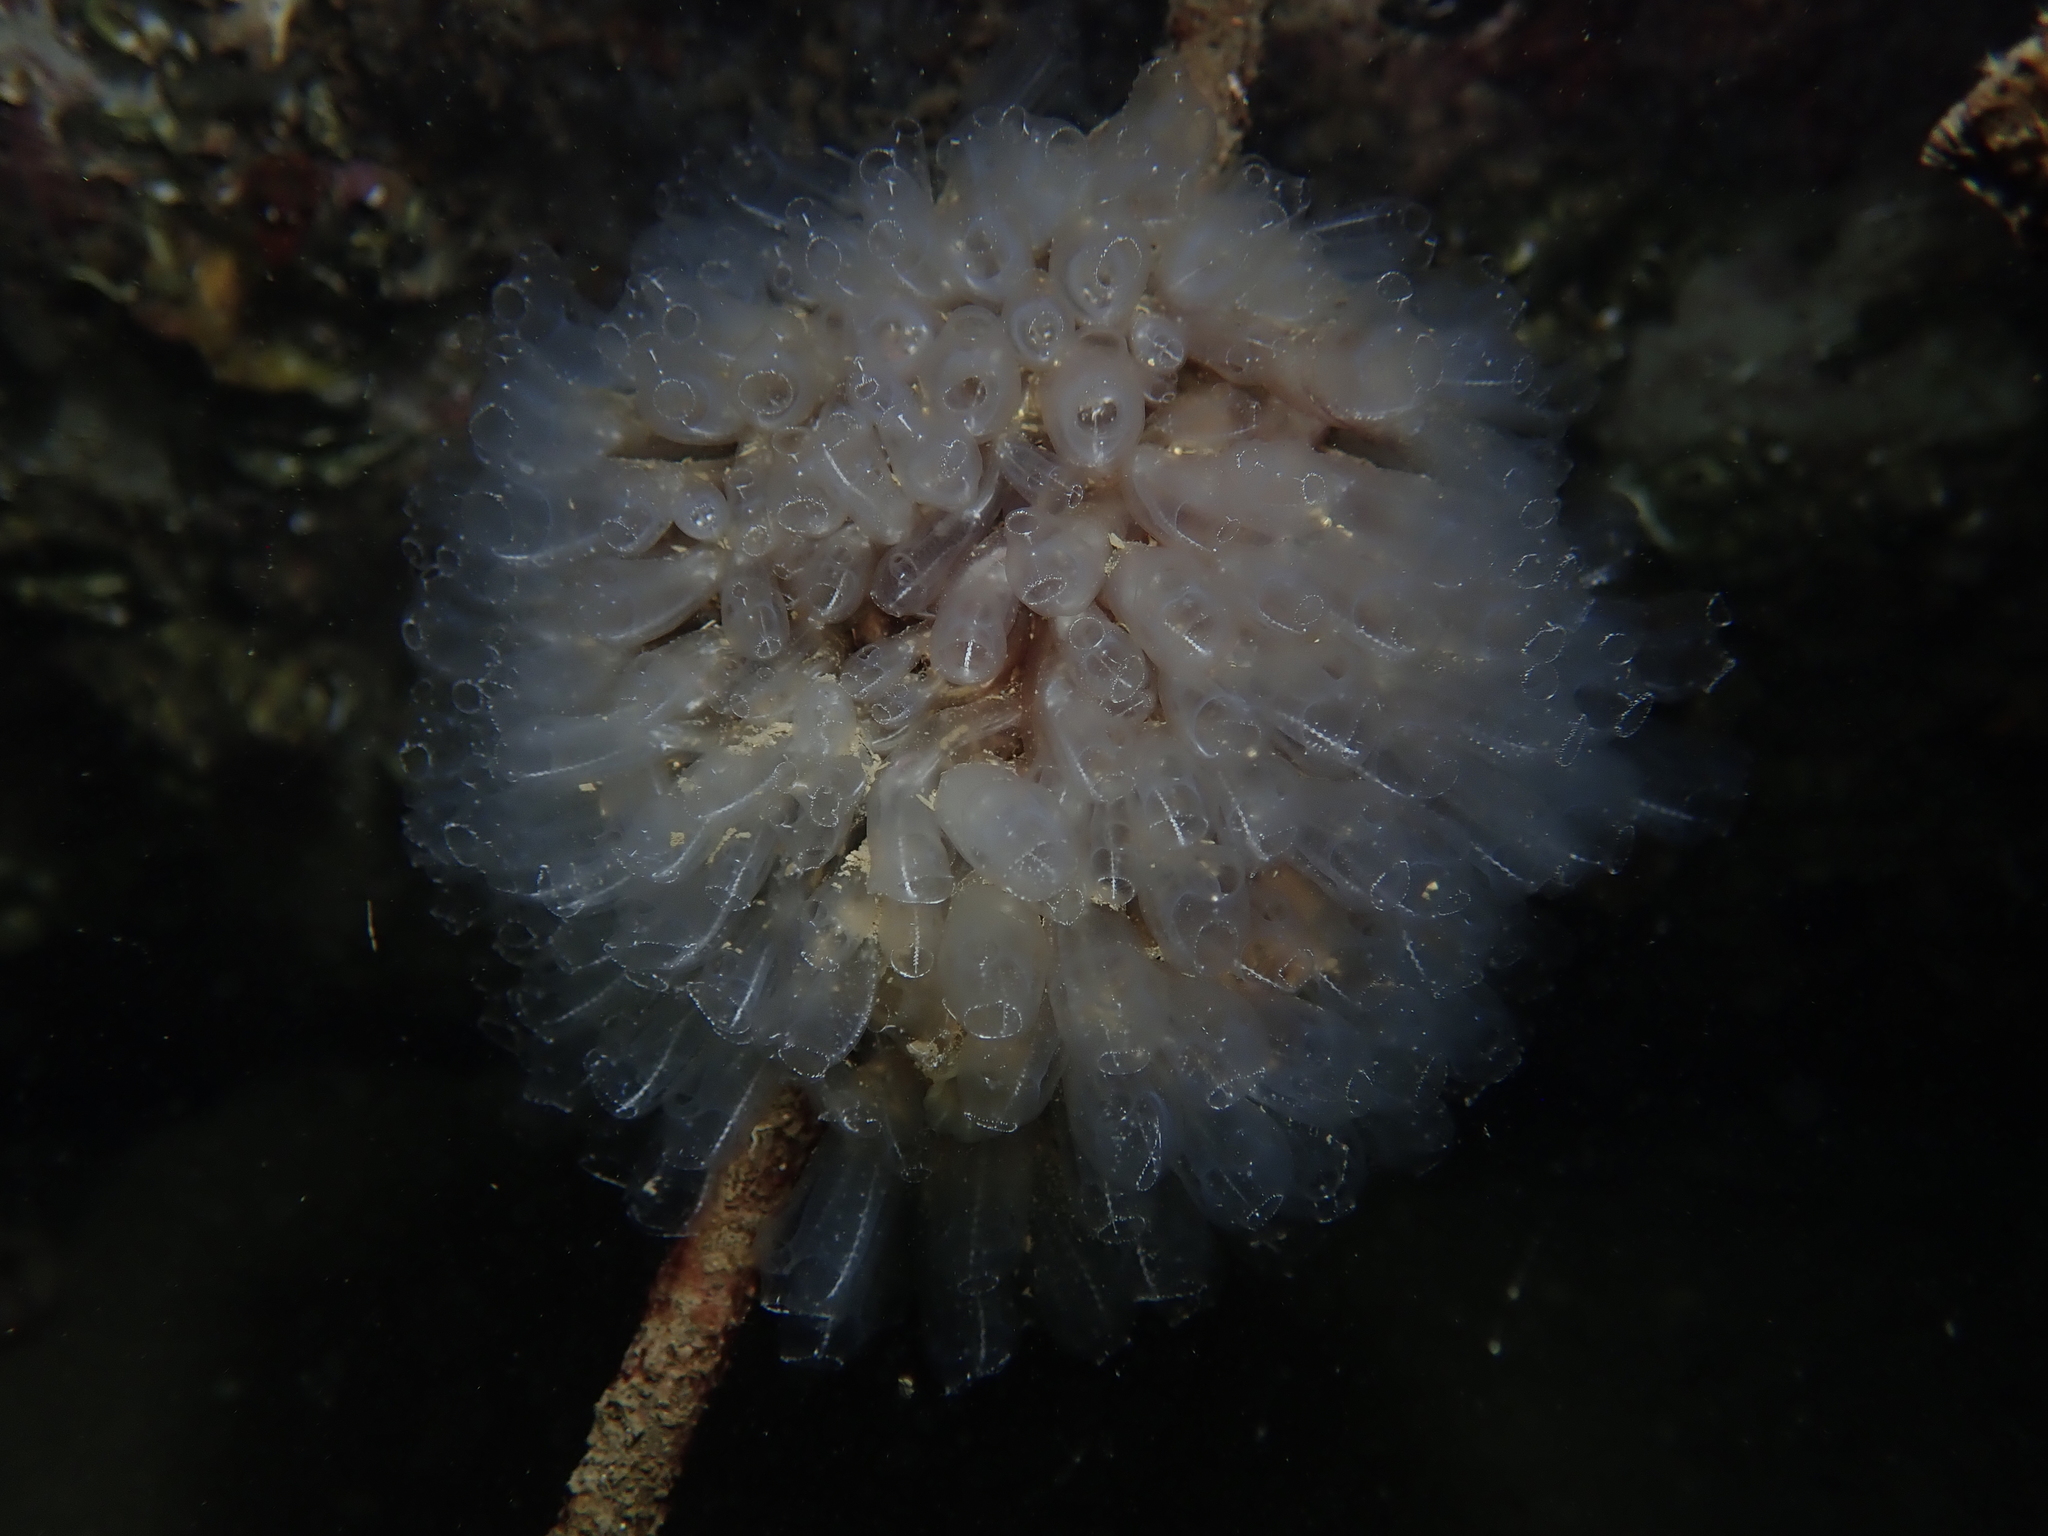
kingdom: Animalia
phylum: Chordata
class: Ascidiacea
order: Aplousobranchia
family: Clavelinidae
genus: Clavelina
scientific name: Clavelina oblonga
